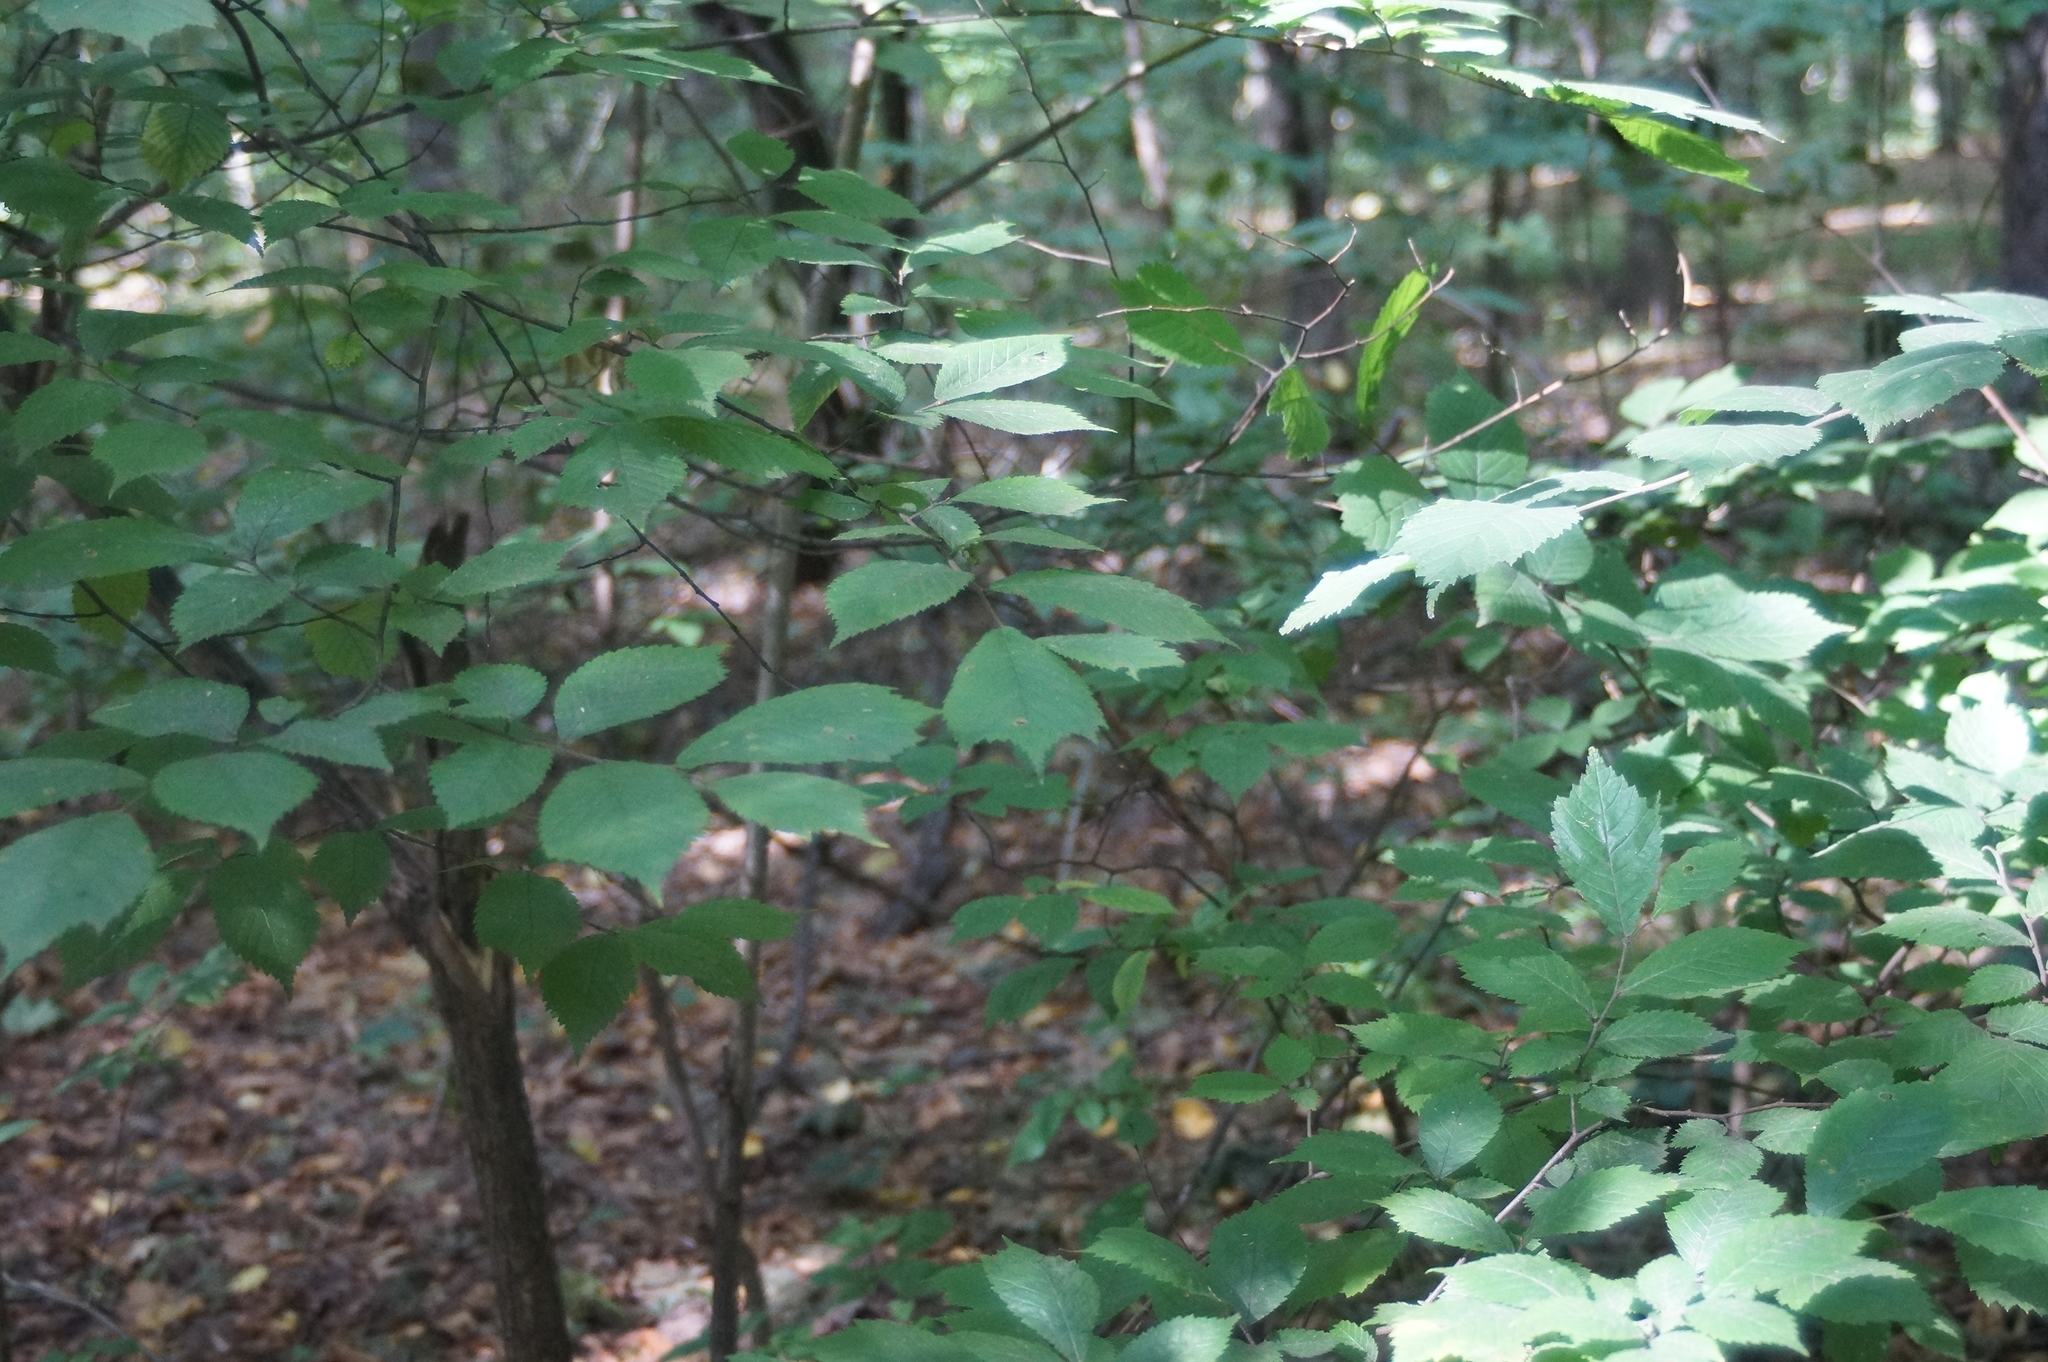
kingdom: Plantae
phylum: Tracheophyta
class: Magnoliopsida
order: Rosales
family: Ulmaceae
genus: Ulmus
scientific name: Ulmus glabra
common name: Wych elm
